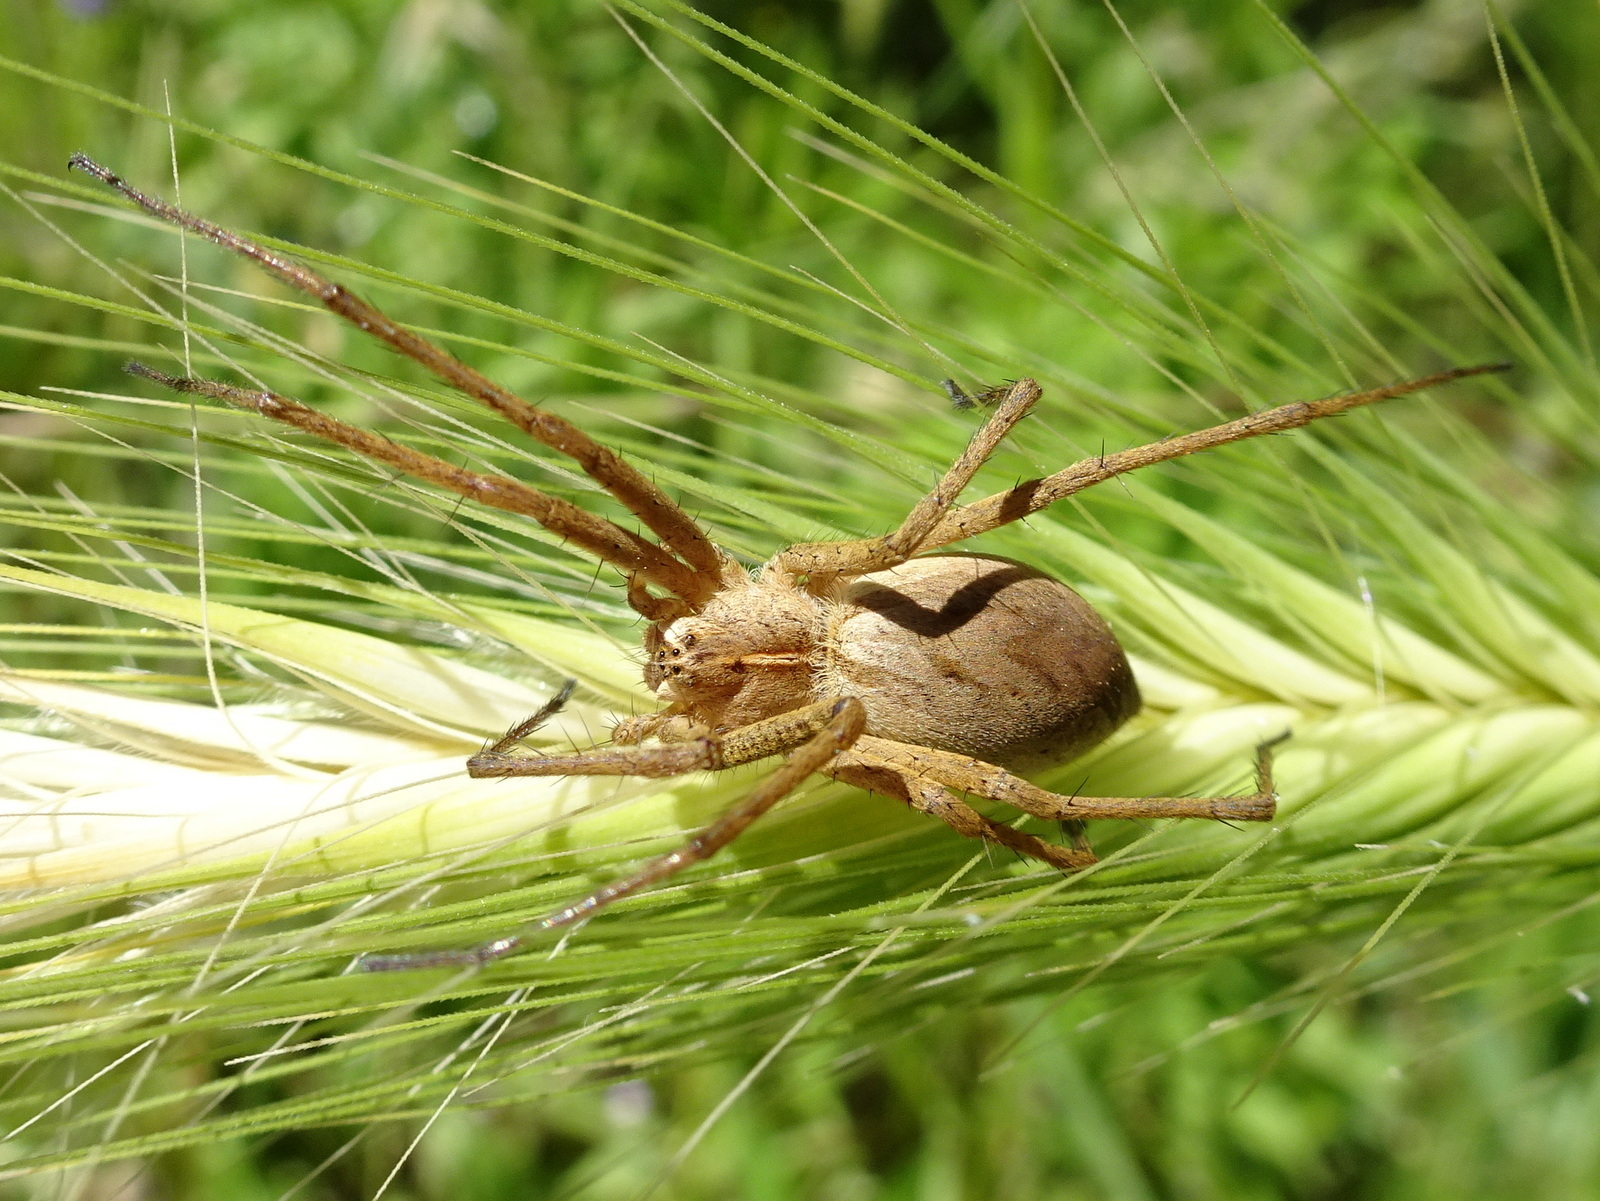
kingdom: Animalia
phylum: Arthropoda
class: Arachnida
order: Araneae
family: Pisauridae
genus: Pisaura
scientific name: Pisaura
